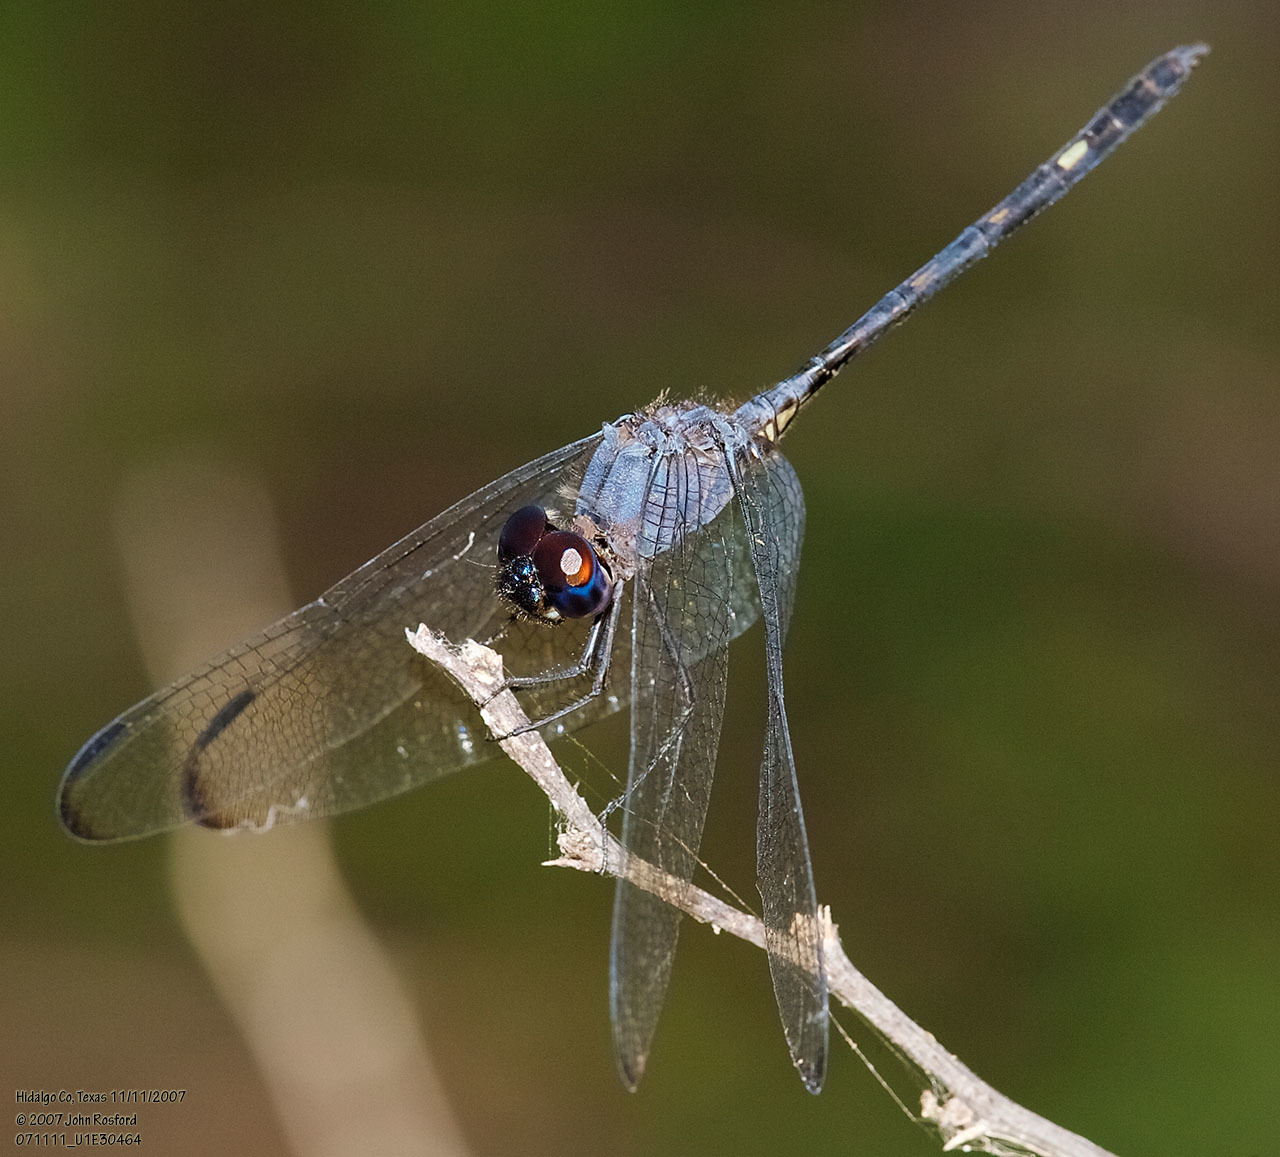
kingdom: Animalia
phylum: Arthropoda
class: Insecta
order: Odonata
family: Libellulidae
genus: Dythemis
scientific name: Dythemis nigrescens
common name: Black setwing
